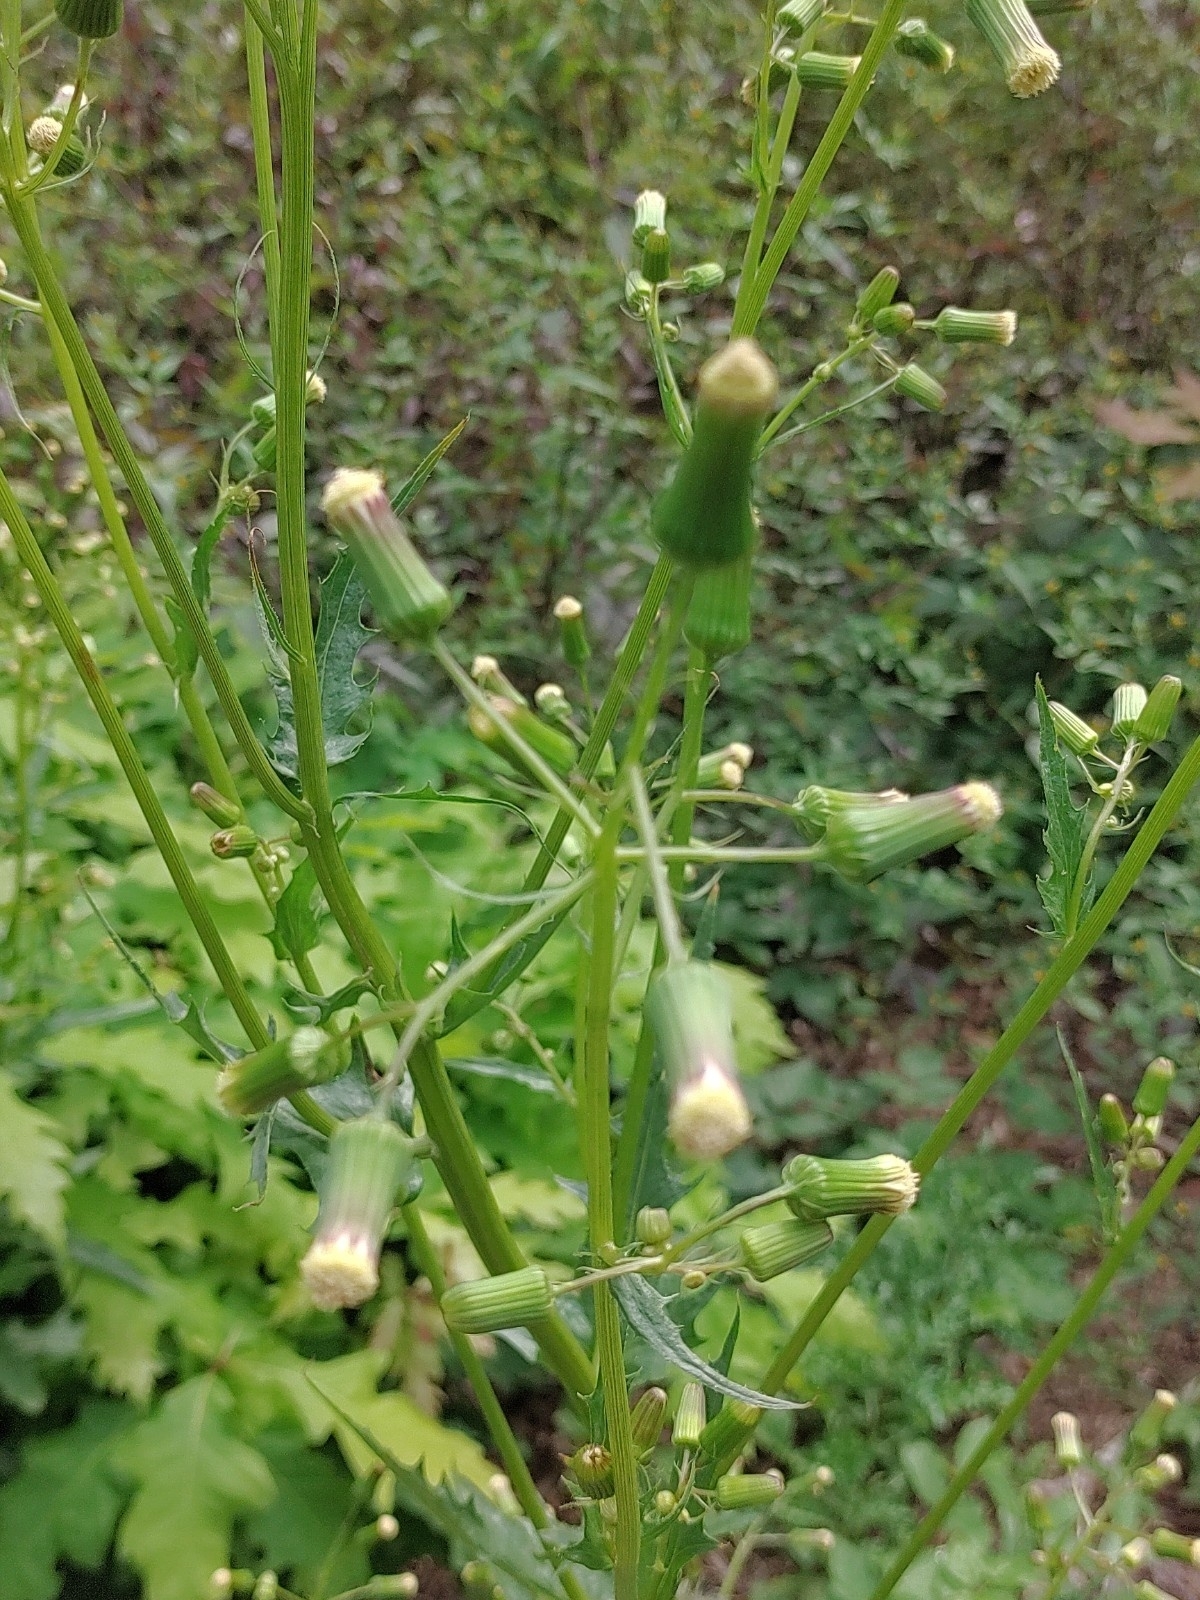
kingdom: Plantae
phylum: Tracheophyta
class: Magnoliopsida
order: Asterales
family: Asteraceae
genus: Erechtites
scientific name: Erechtites hieraciifolius
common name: American burnweed
